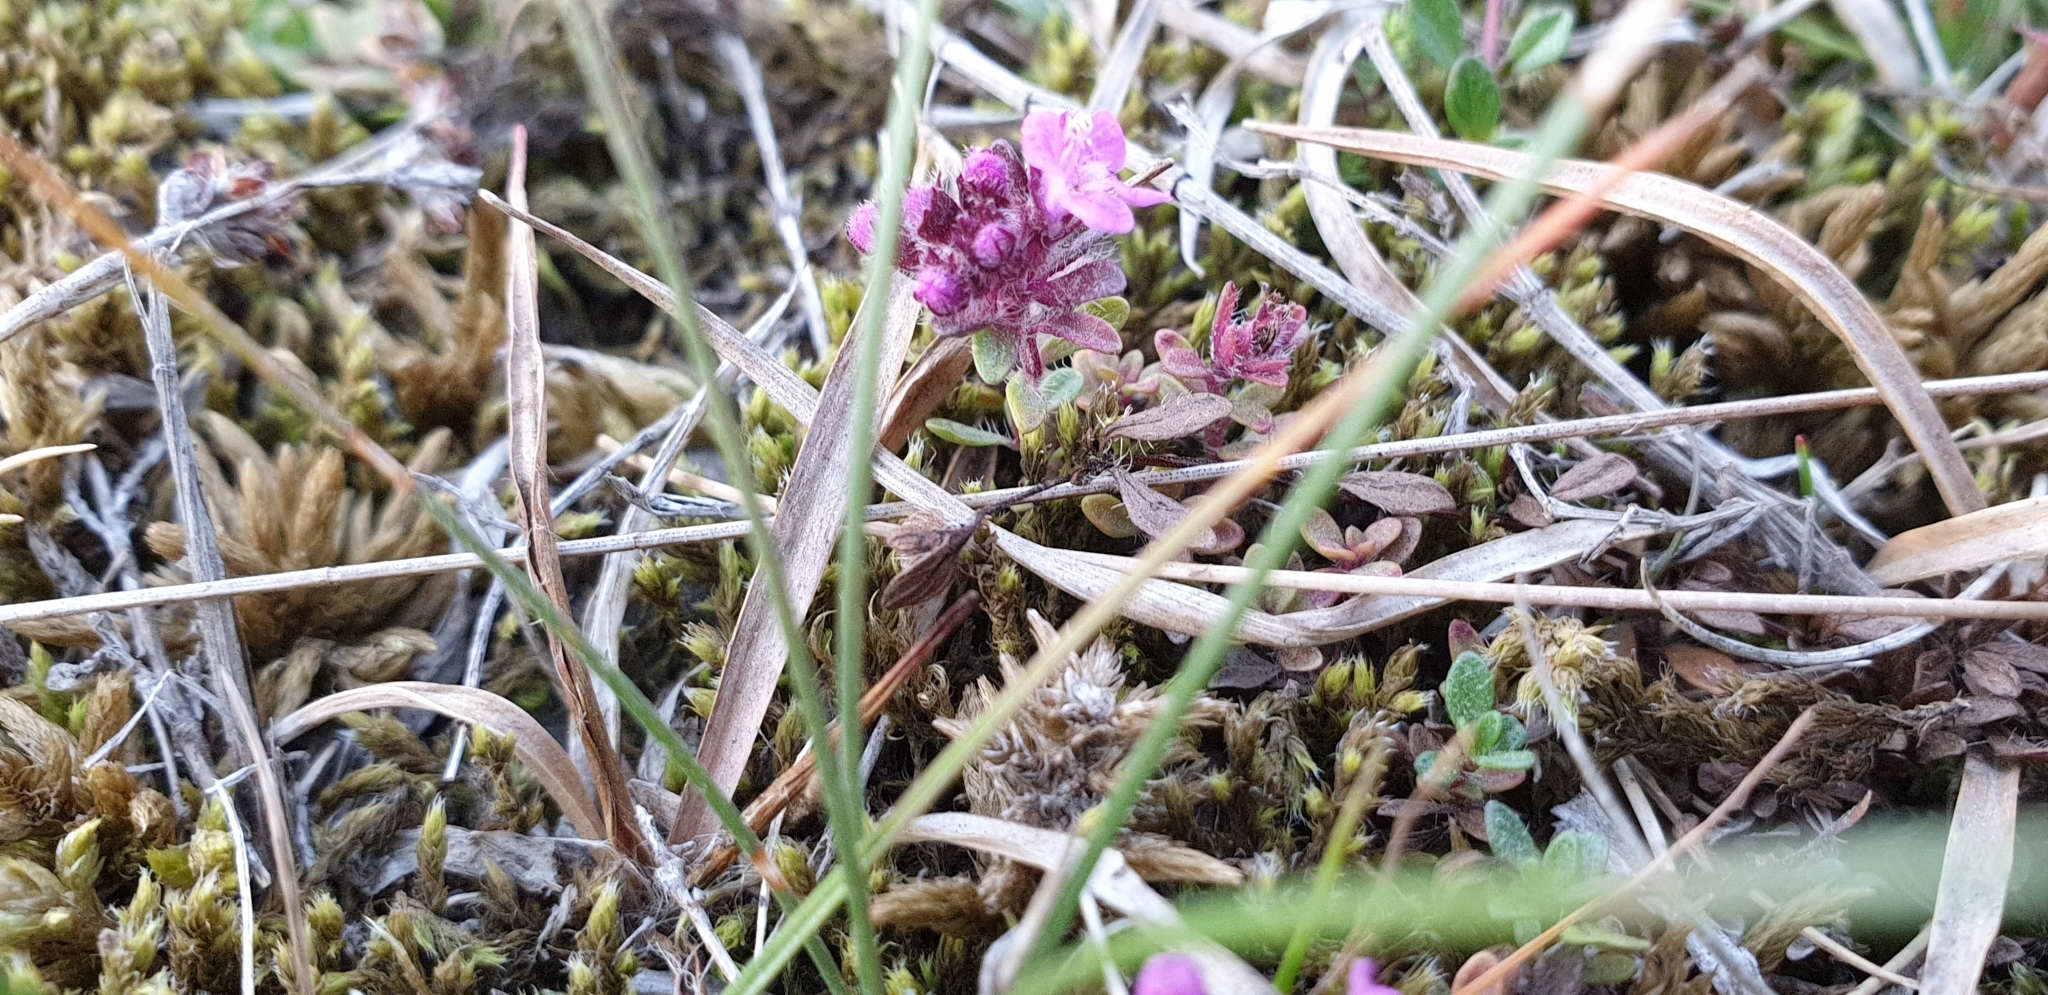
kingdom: Plantae
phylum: Tracheophyta
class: Magnoliopsida
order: Lamiales
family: Lamiaceae
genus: Thymus
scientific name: Thymus praecox
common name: Wild thyme
